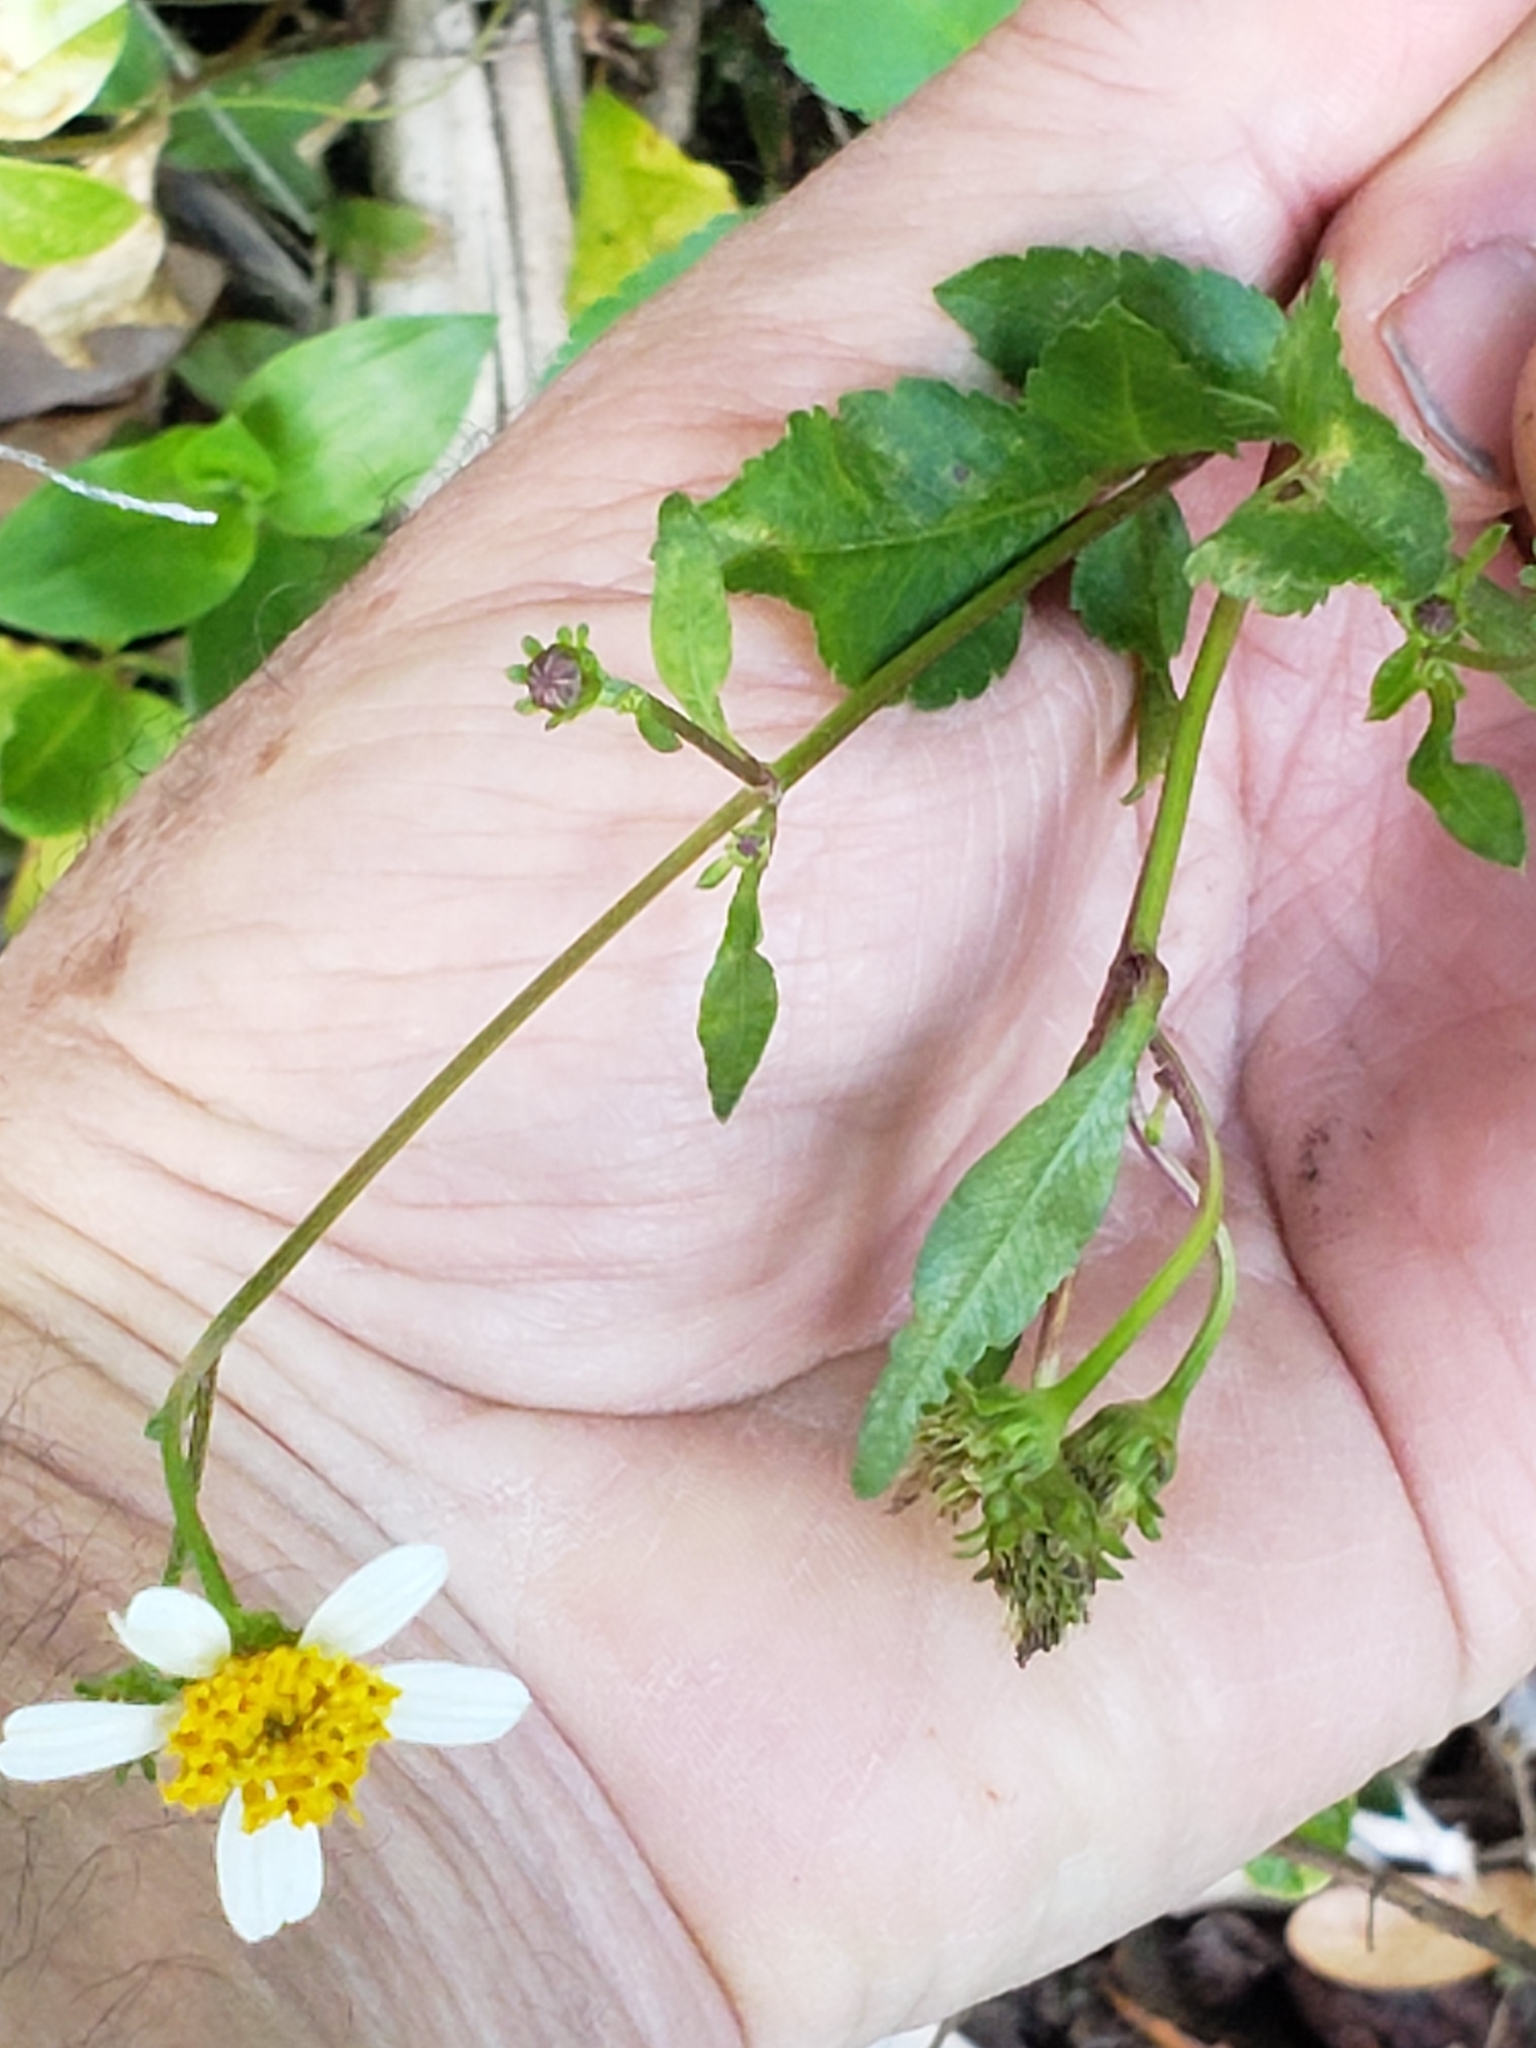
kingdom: Plantae
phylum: Tracheophyta
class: Magnoliopsida
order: Asterales
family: Asteraceae
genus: Bidens
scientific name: Bidens alba
